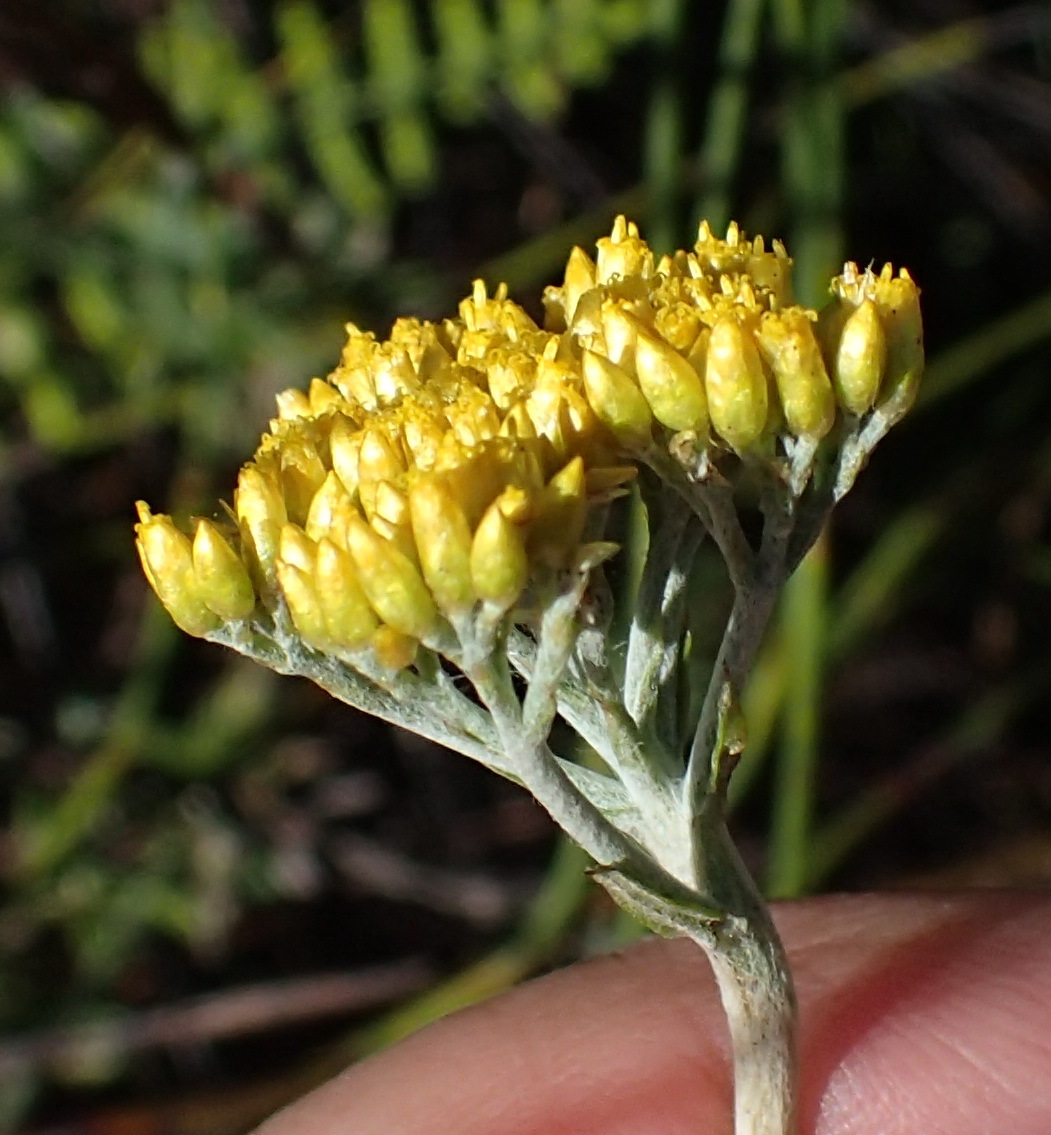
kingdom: Plantae
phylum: Tracheophyta
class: Magnoliopsida
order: Asterales
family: Asteraceae
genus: Helichrysum
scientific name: Helichrysum cymosum
